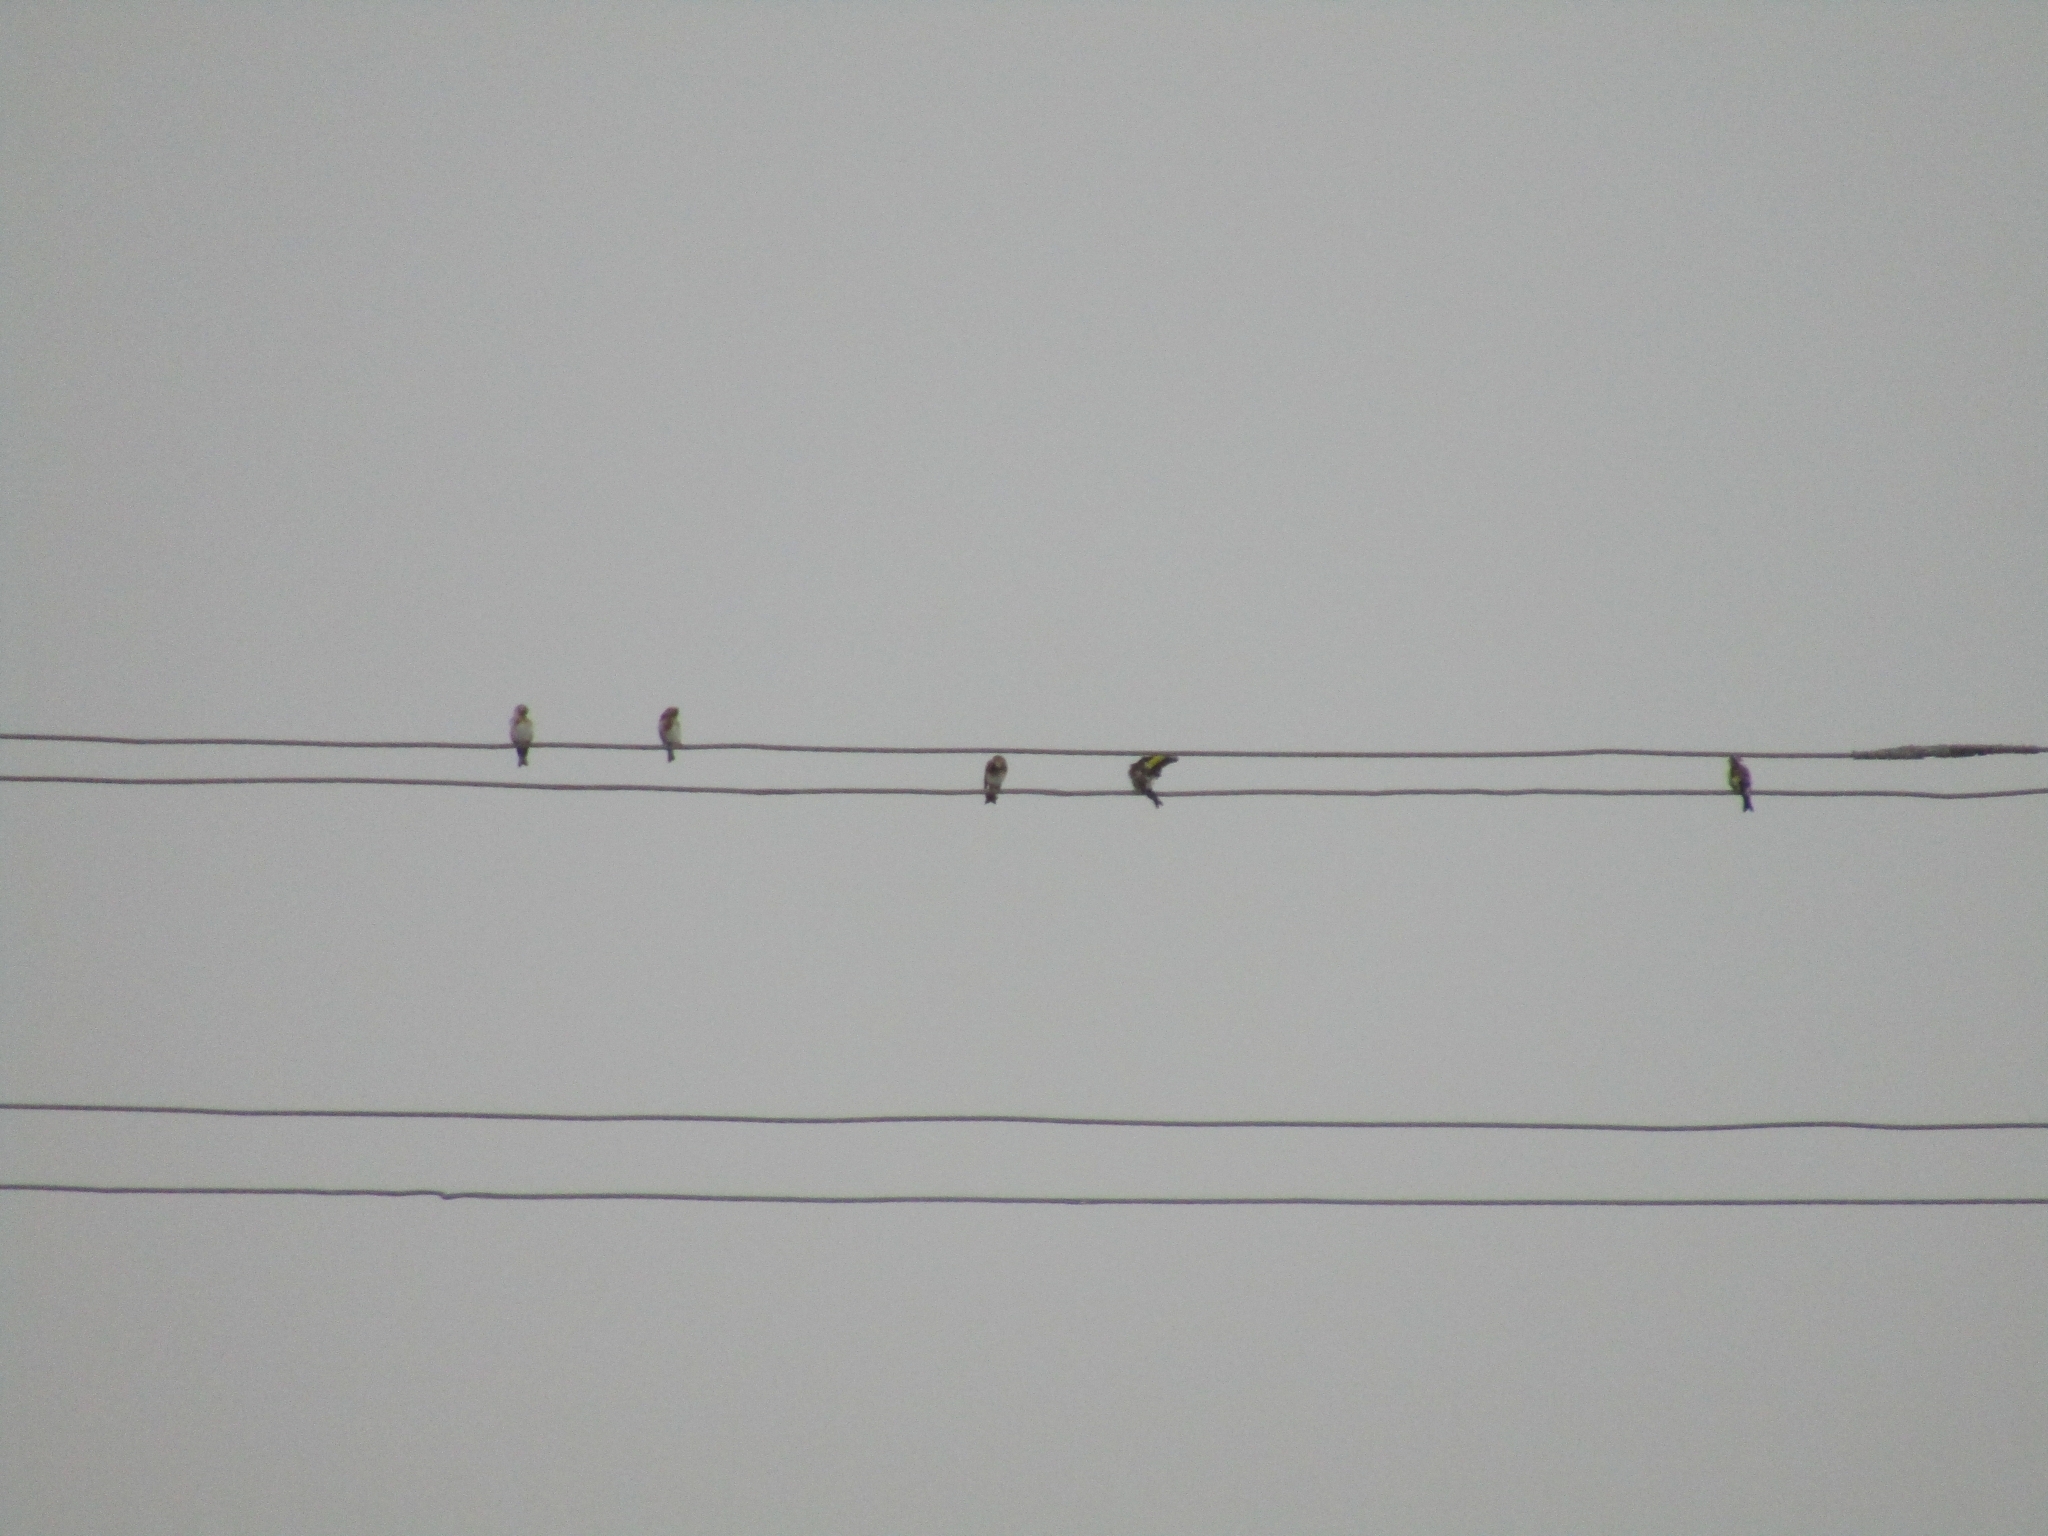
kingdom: Animalia
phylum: Chordata
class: Aves
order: Passeriformes
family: Fringillidae
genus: Carduelis
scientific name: Carduelis carduelis
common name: European goldfinch
